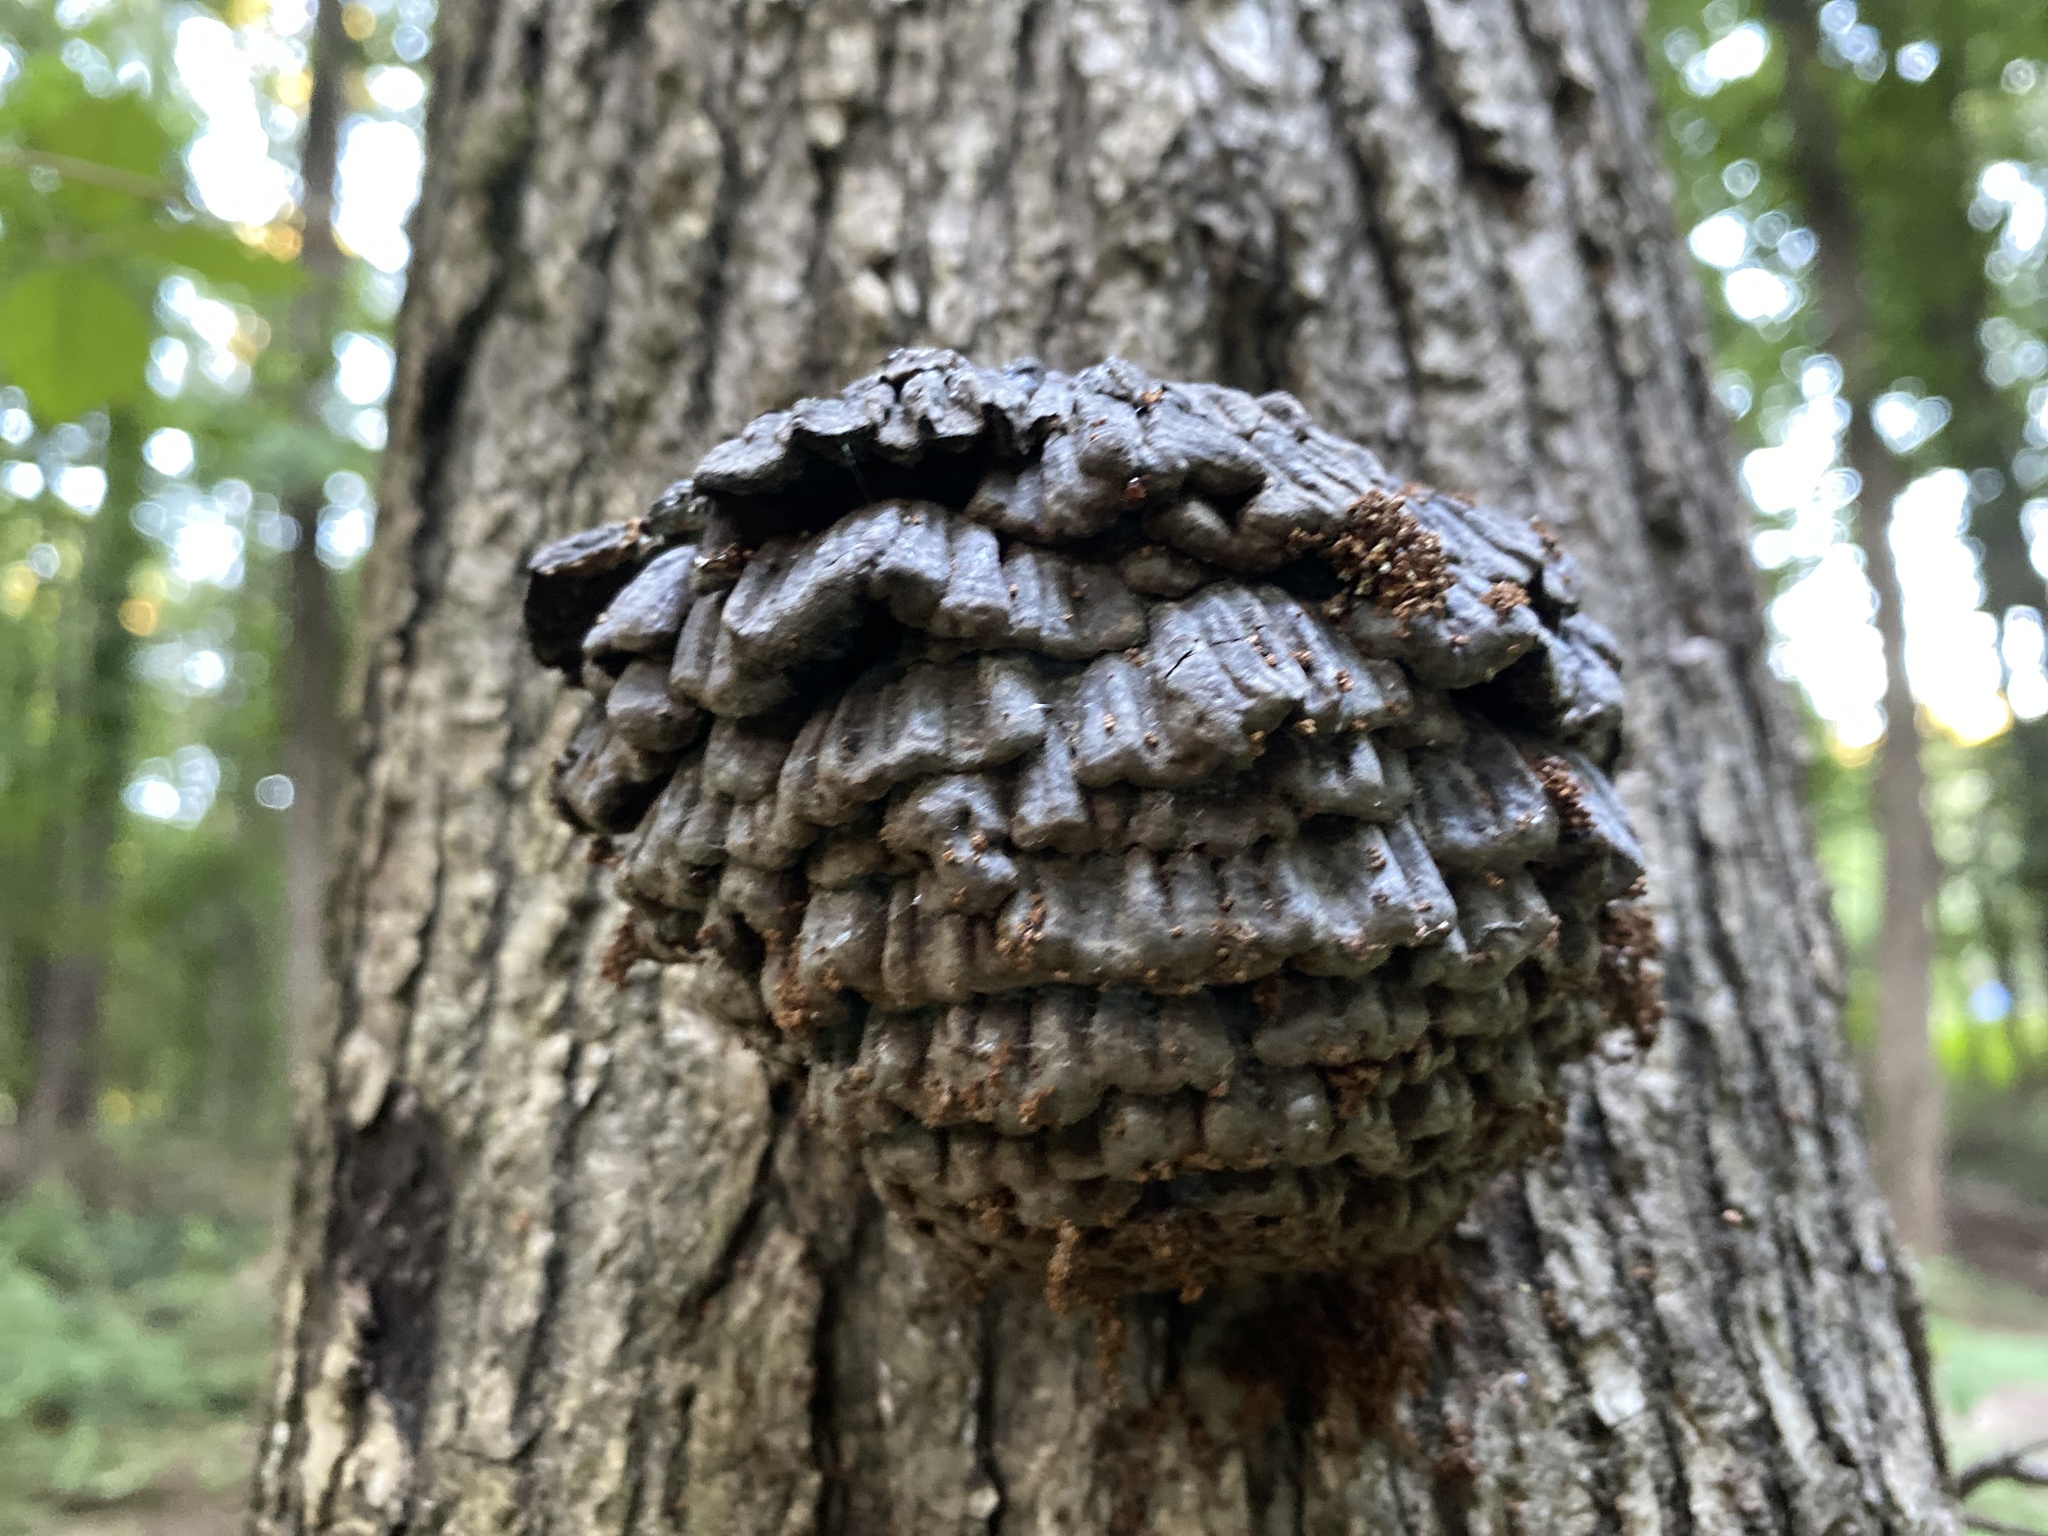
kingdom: Fungi
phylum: Basidiomycota
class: Agaricomycetes
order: Polyporales
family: Polyporaceae
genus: Globifomes
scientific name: Globifomes graveolens
